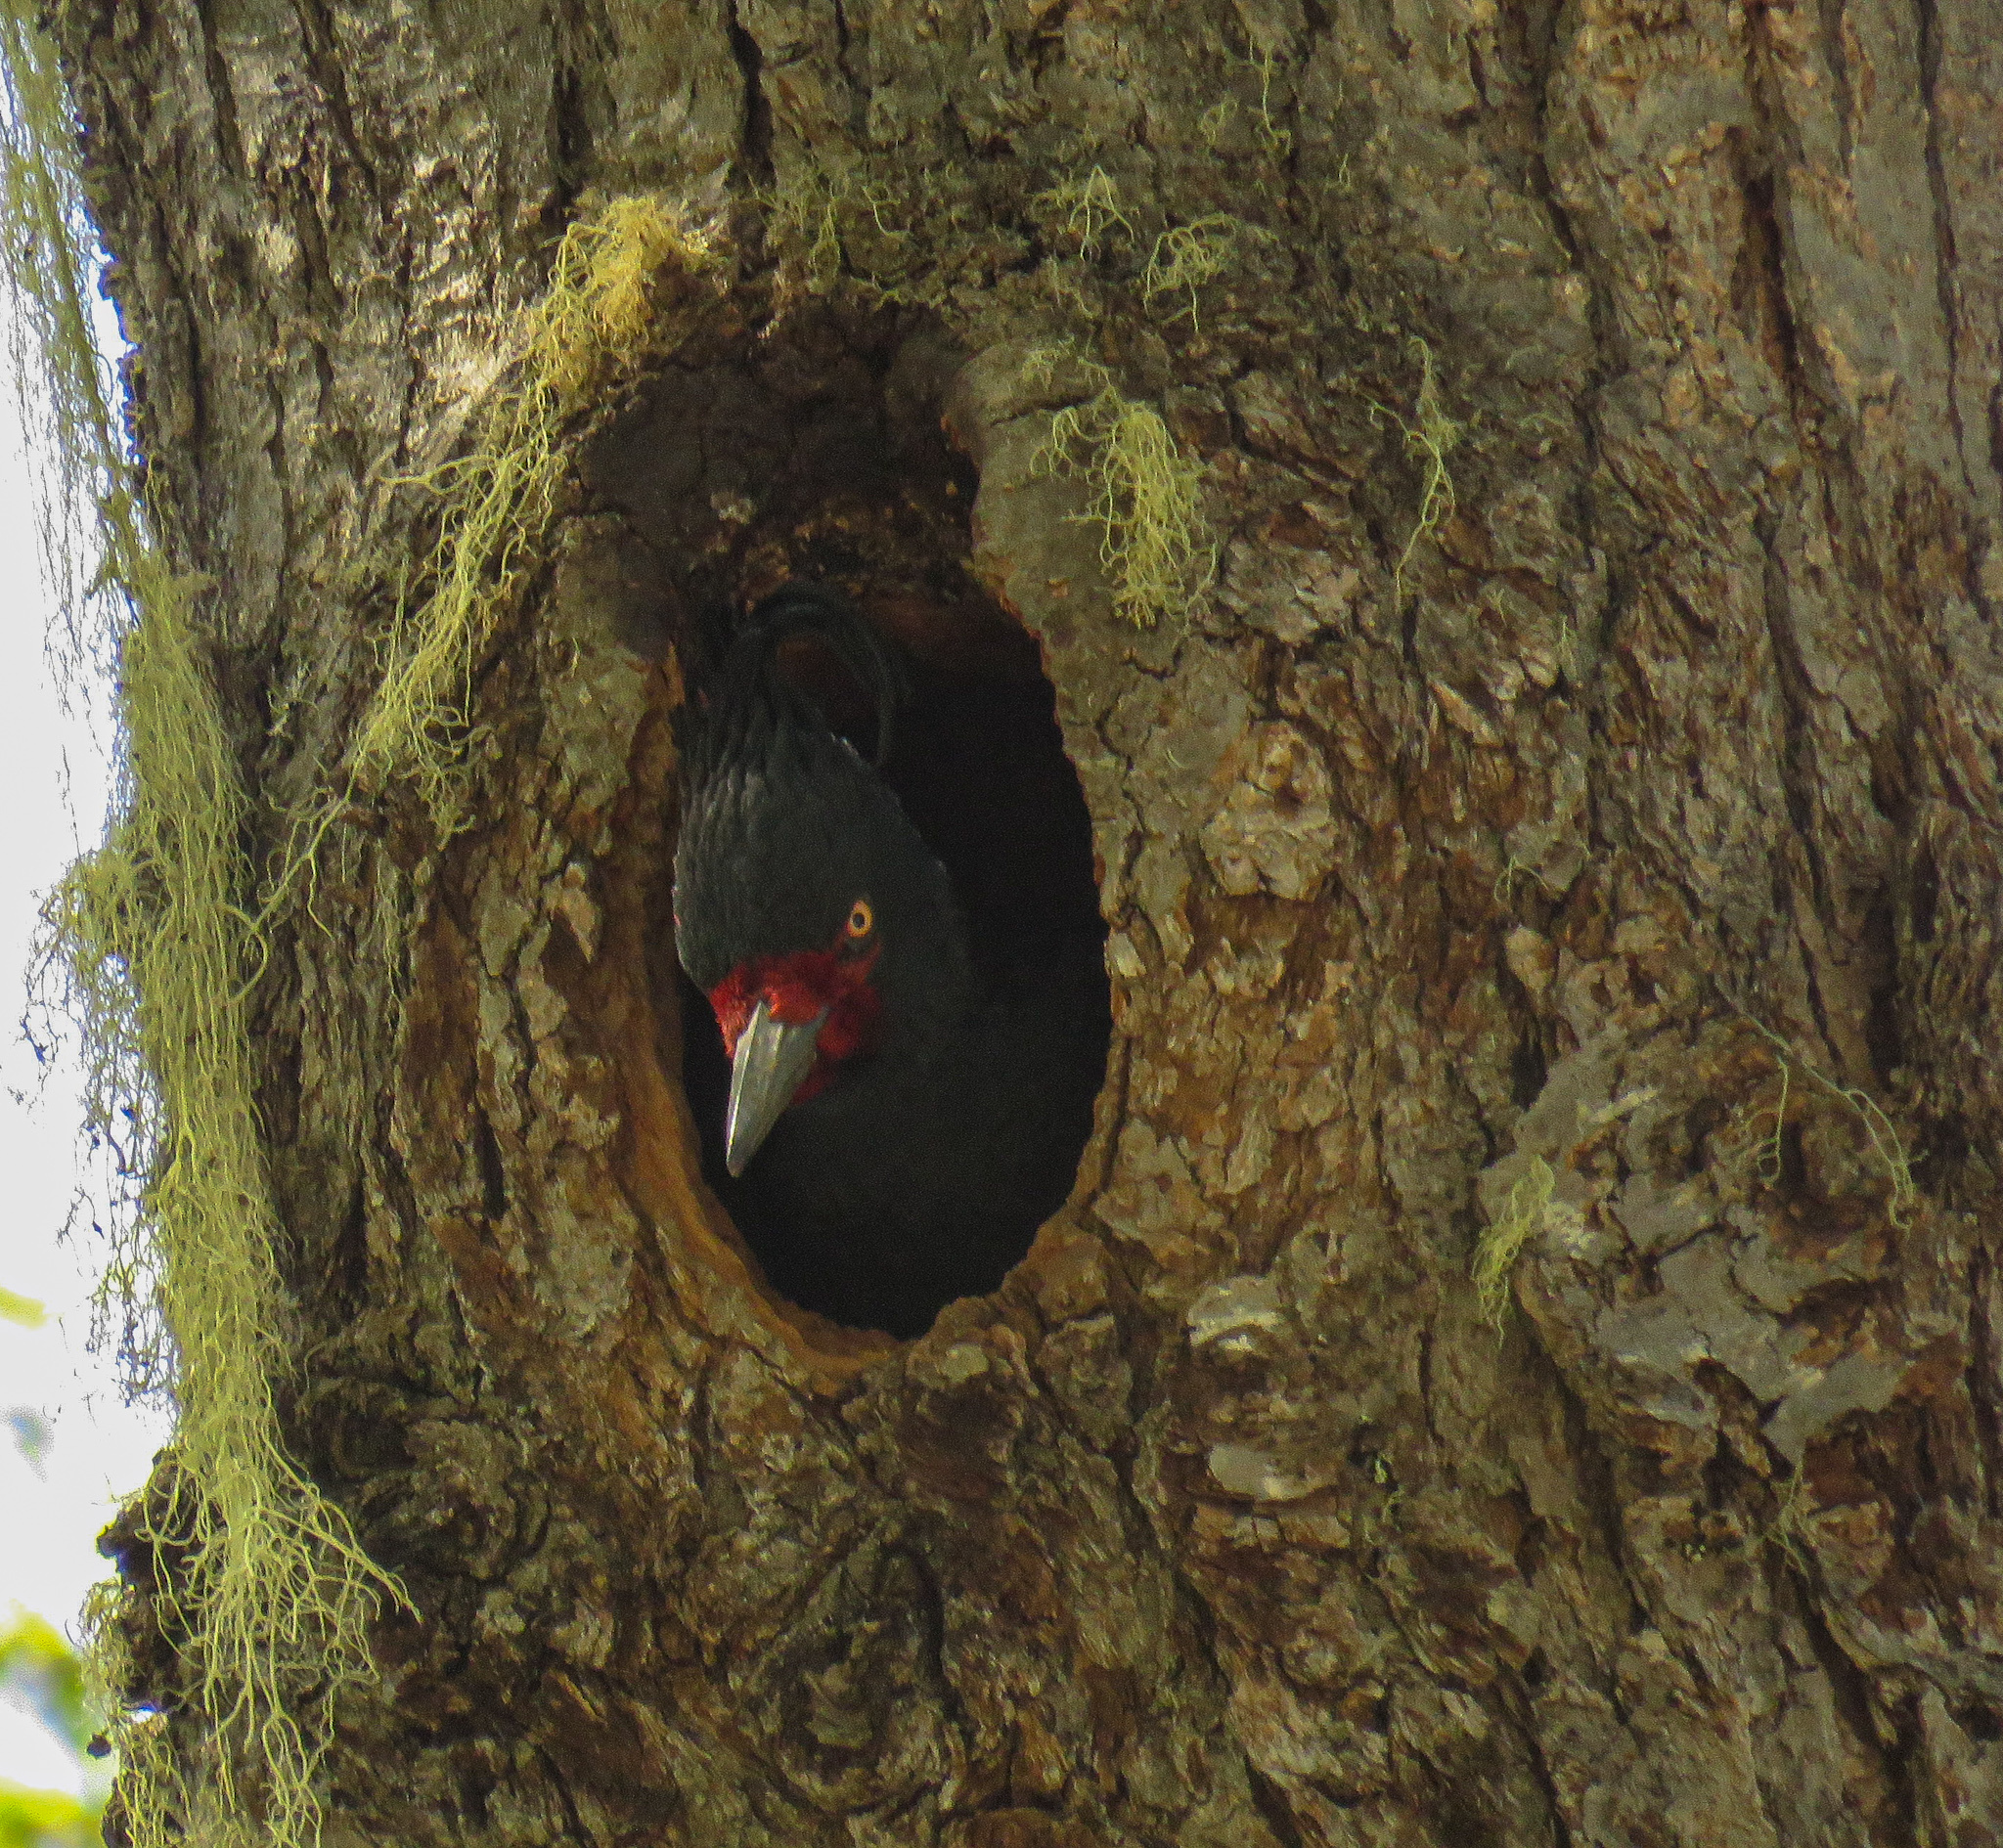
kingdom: Animalia
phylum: Chordata
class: Aves
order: Piciformes
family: Picidae
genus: Campephilus
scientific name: Campephilus magellanicus
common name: Magellanic woodpecker
